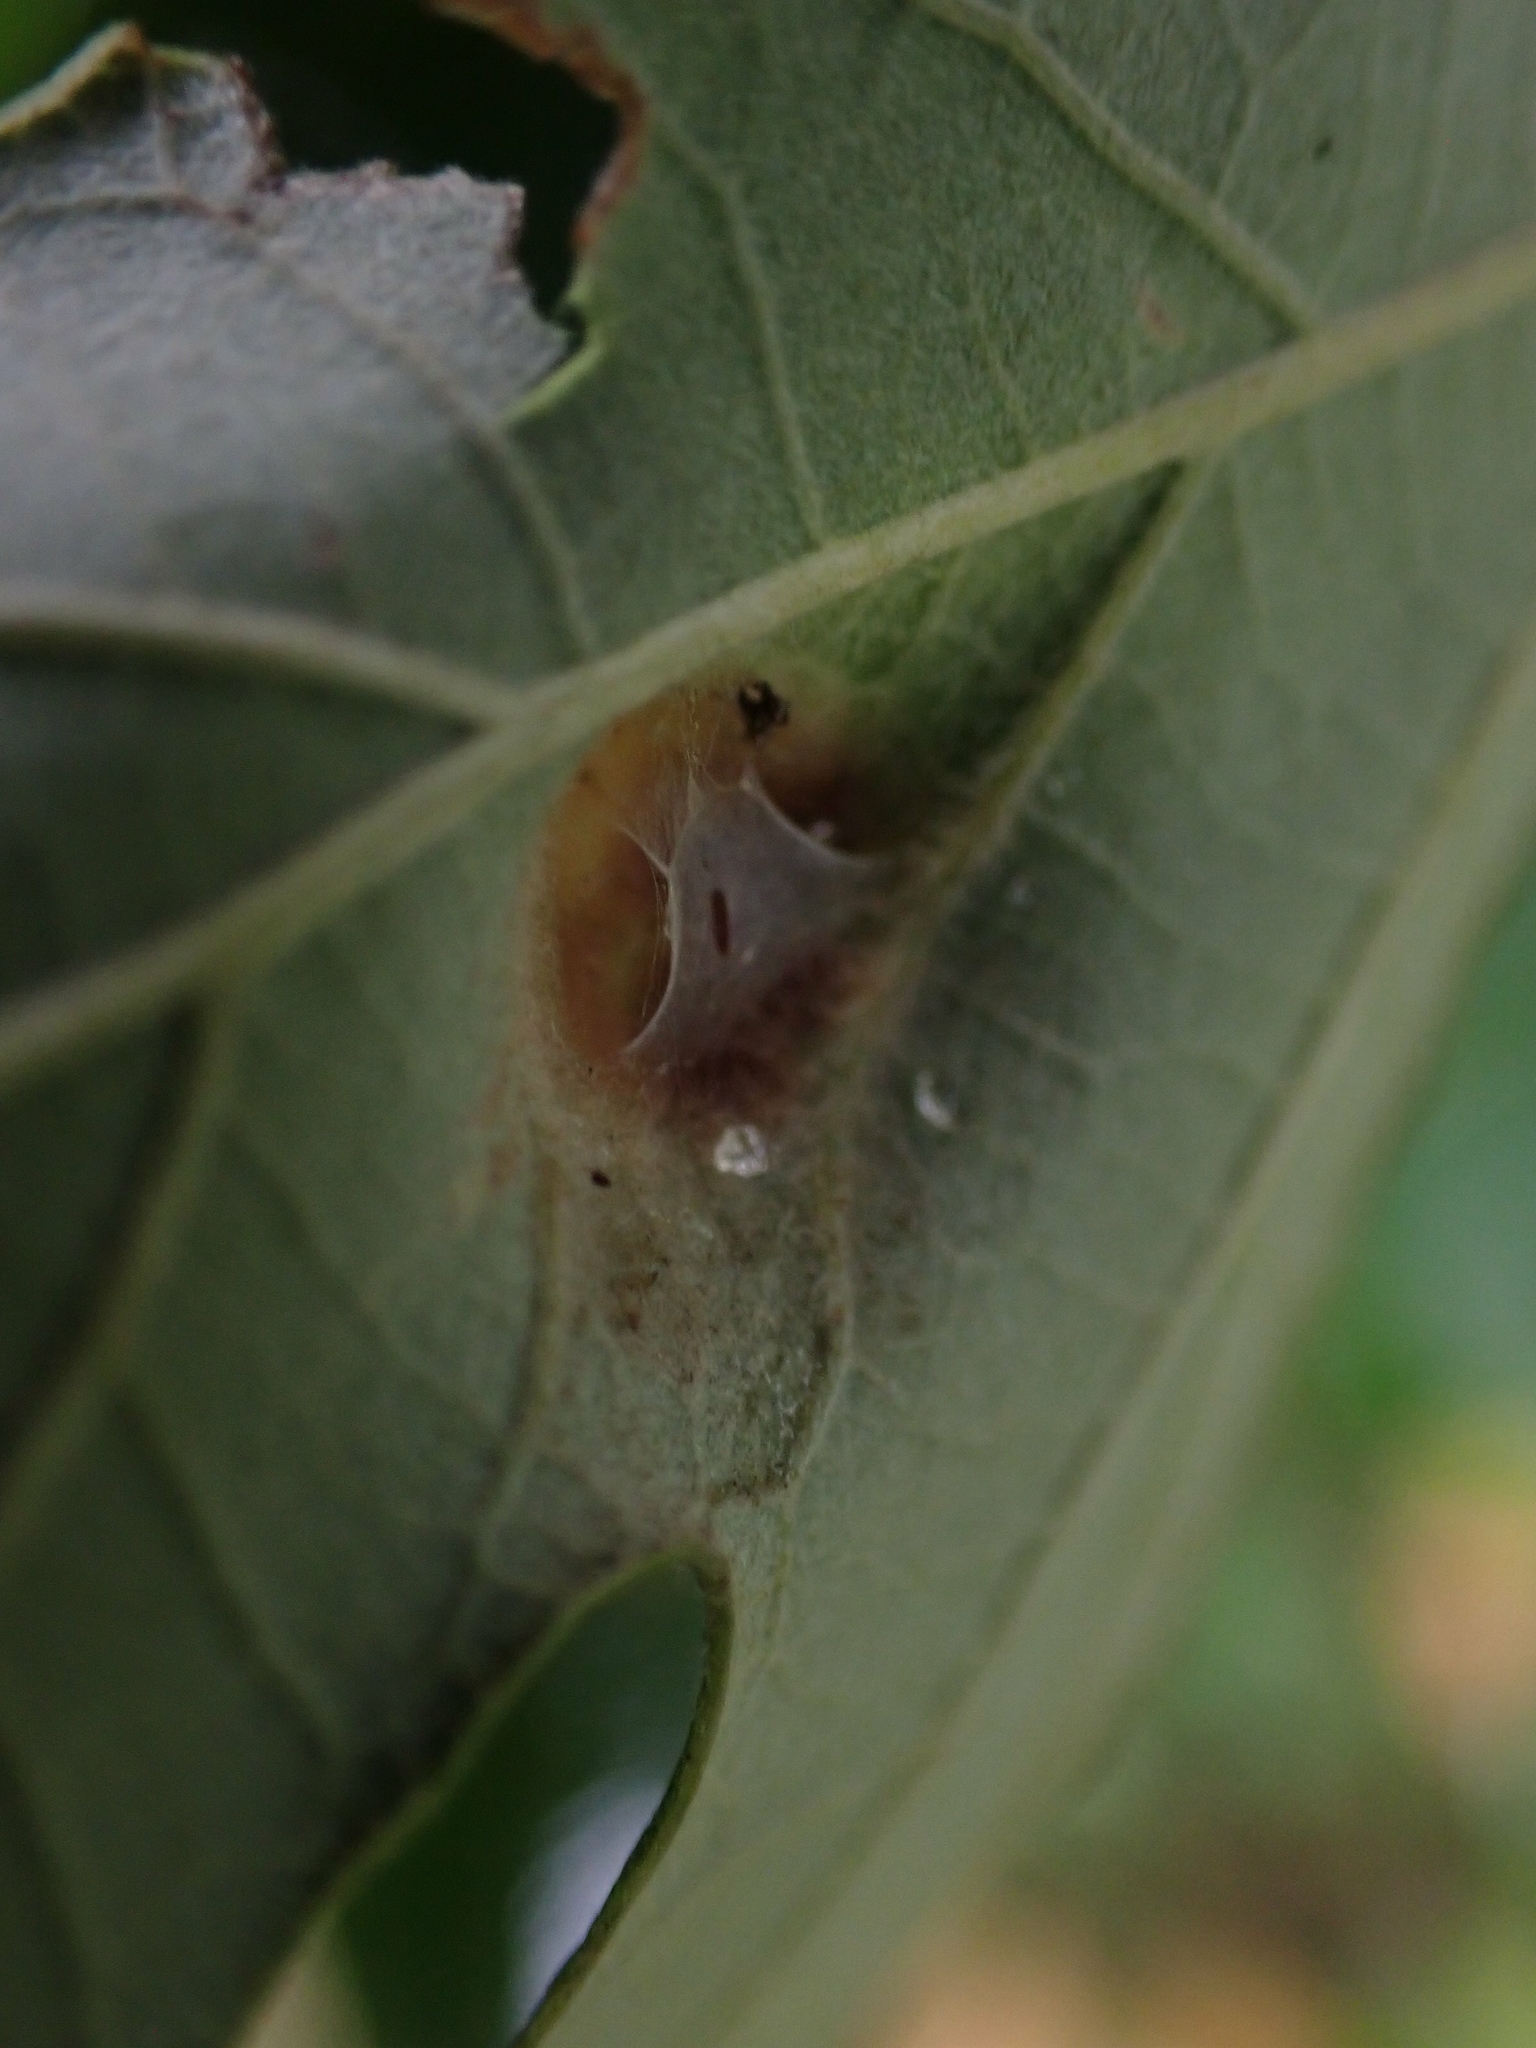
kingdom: Animalia
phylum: Arthropoda
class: Arachnida
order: Trombidiformes
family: Eriophyidae
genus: Aceria
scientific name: Aceria quercina
